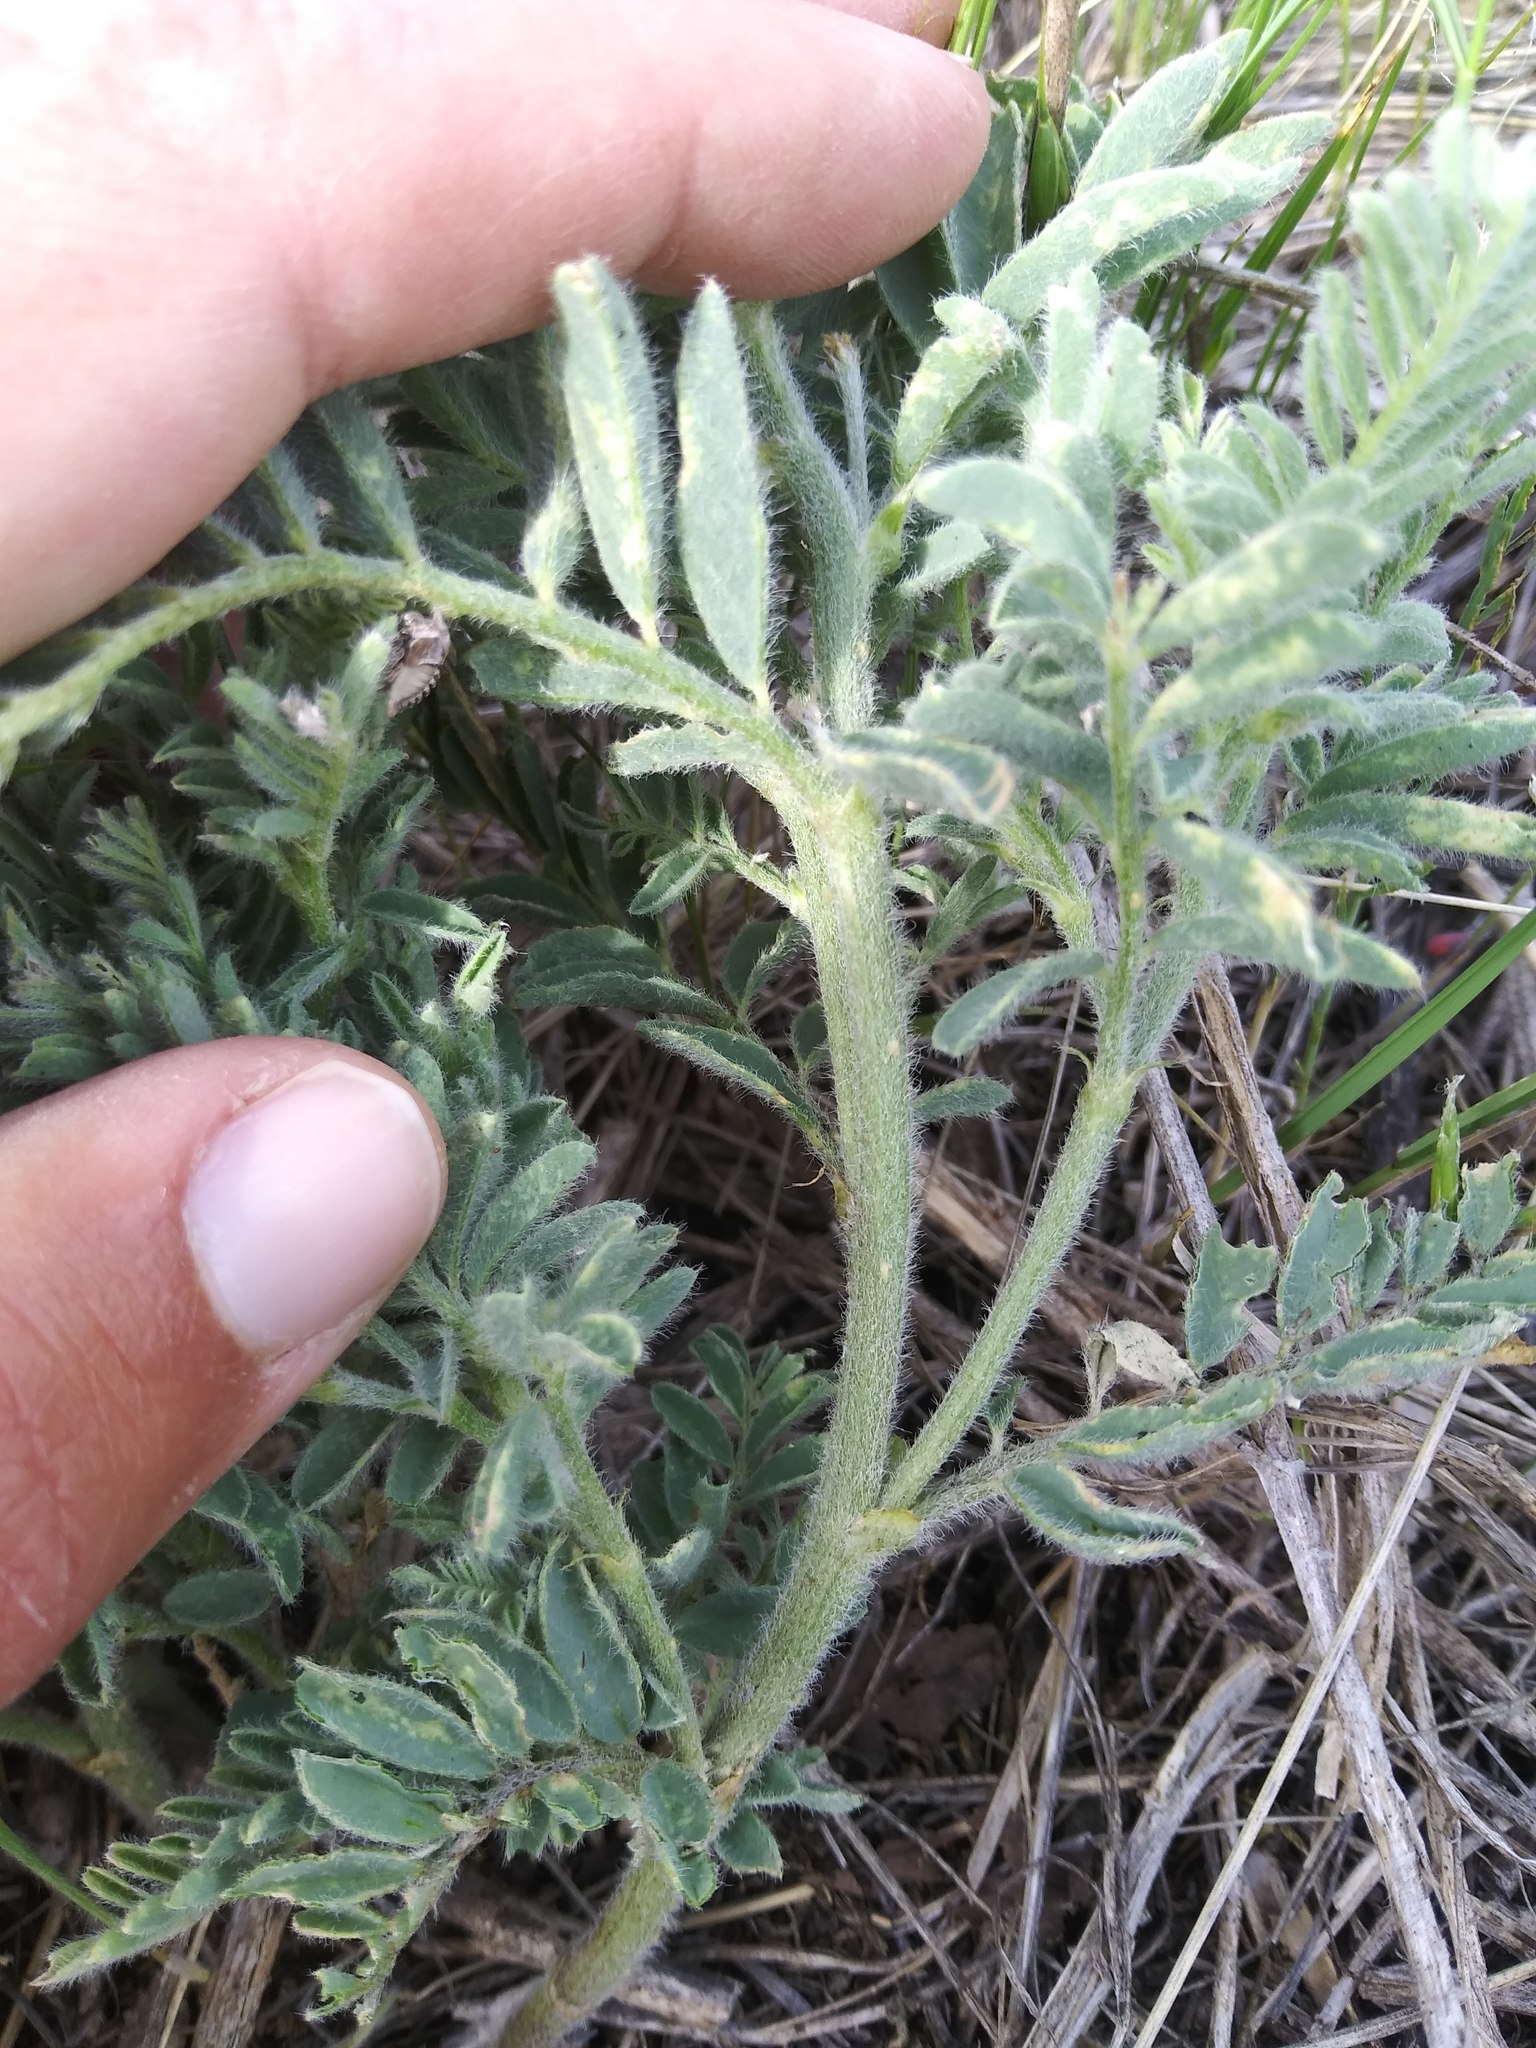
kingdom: Plantae
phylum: Tracheophyta
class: Magnoliopsida
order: Fabales
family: Fabaceae
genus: Astragalus
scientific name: Astragalus drummondii
